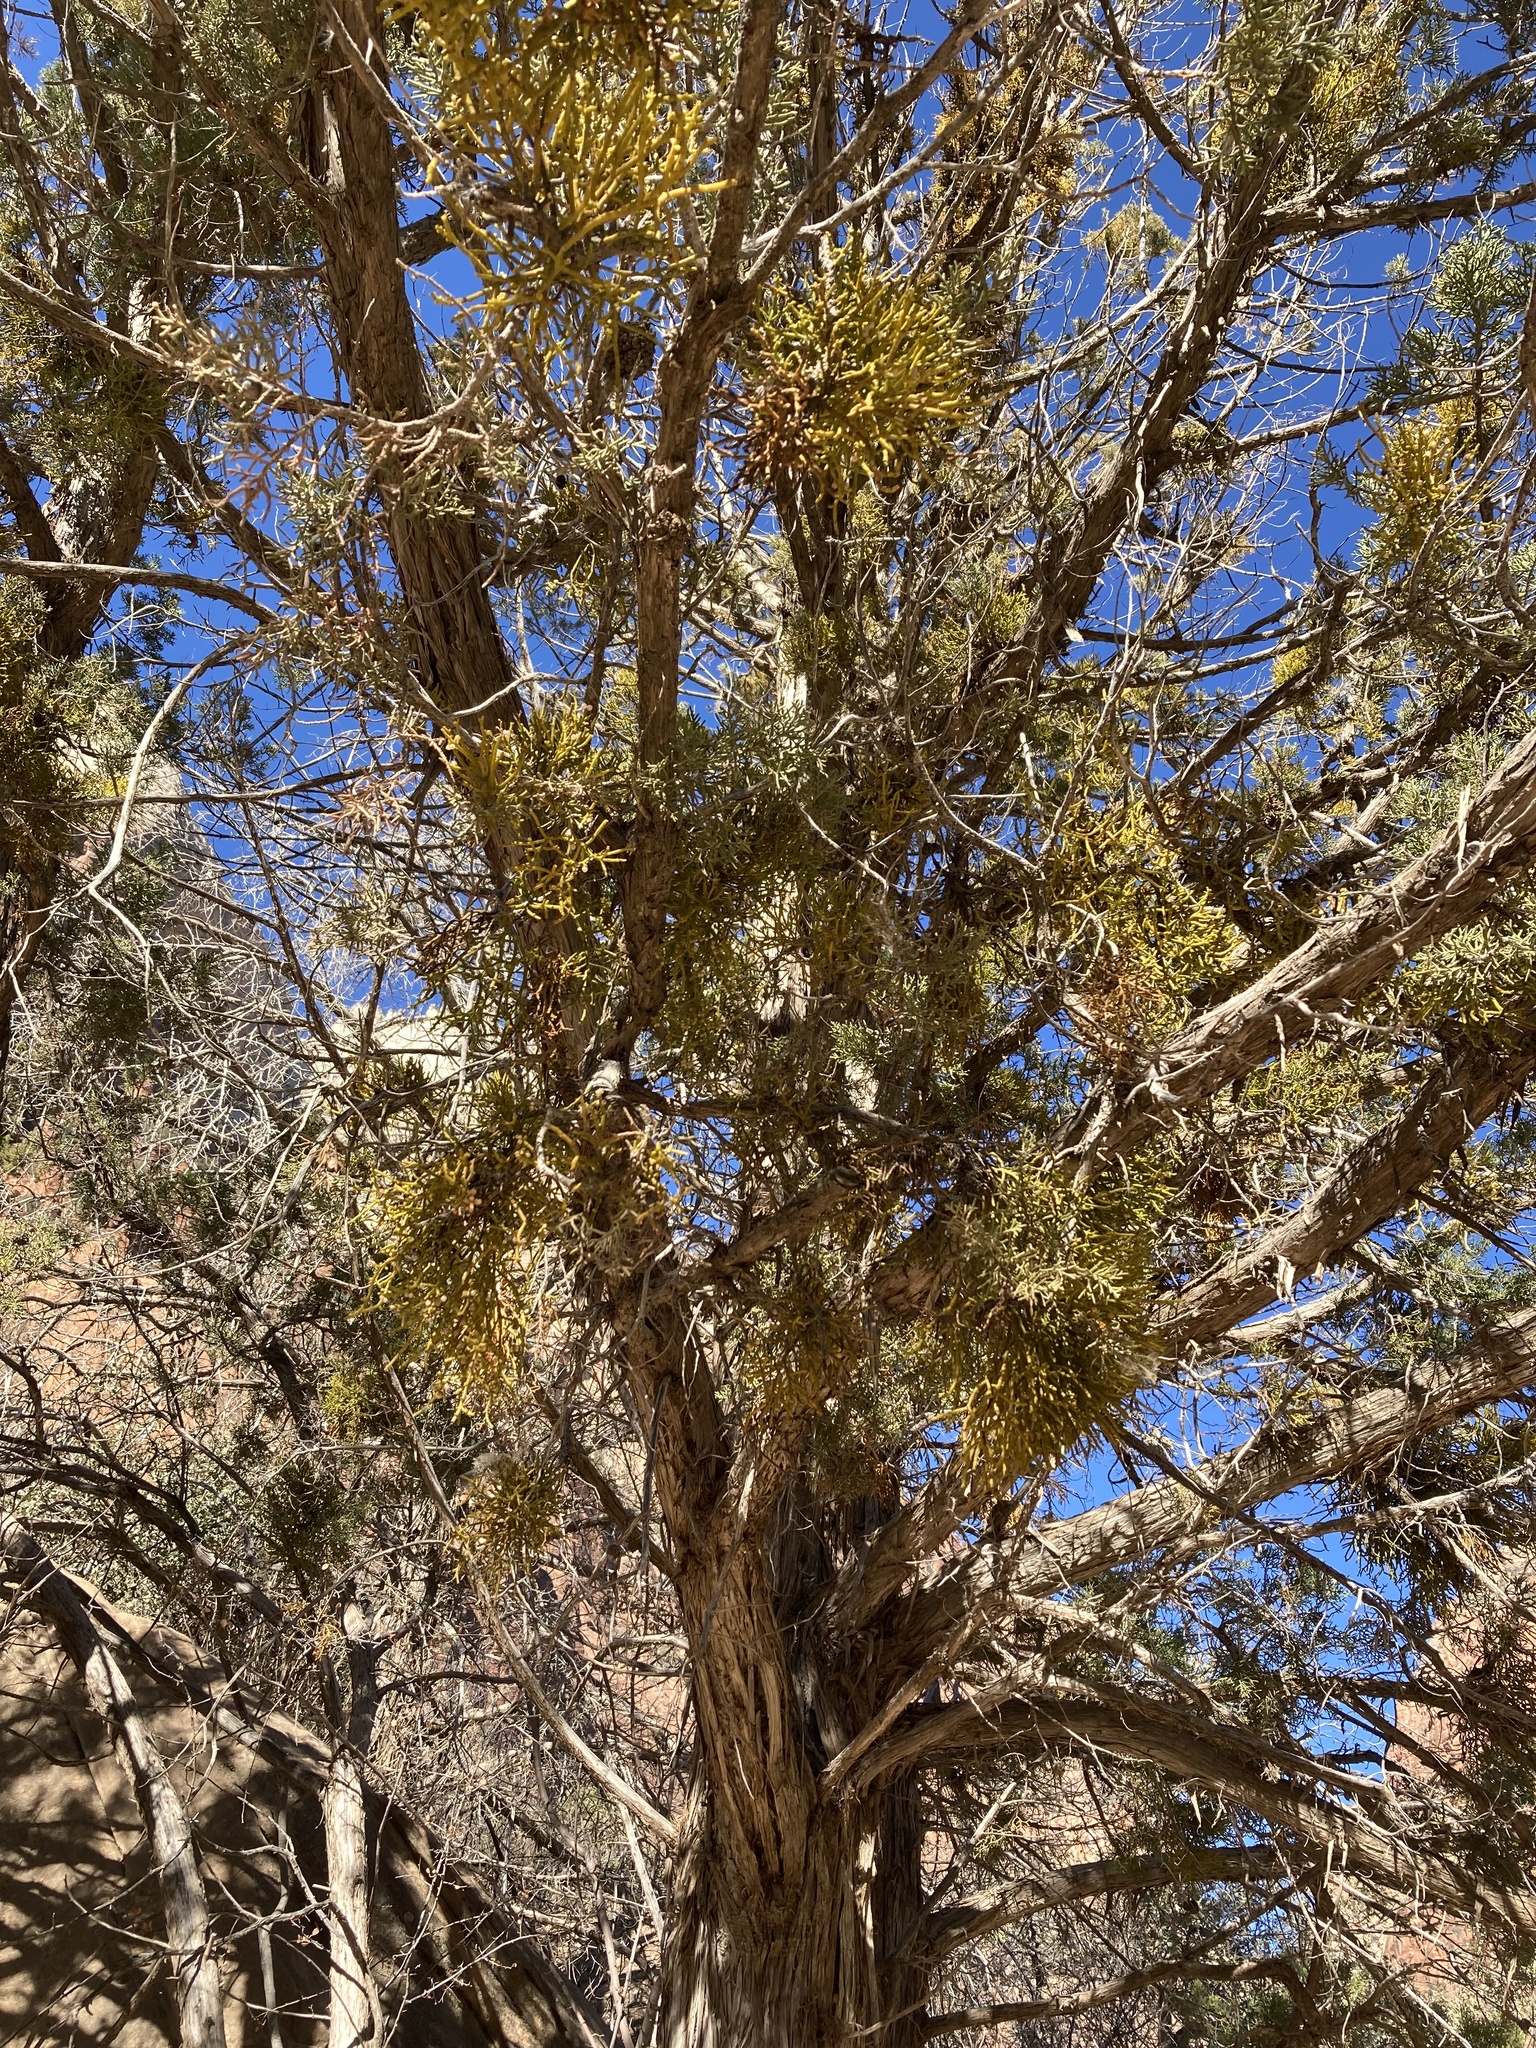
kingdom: Plantae
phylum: Tracheophyta
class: Magnoliopsida
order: Santalales
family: Viscaceae
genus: Phoradendron
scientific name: Phoradendron juniperinum
